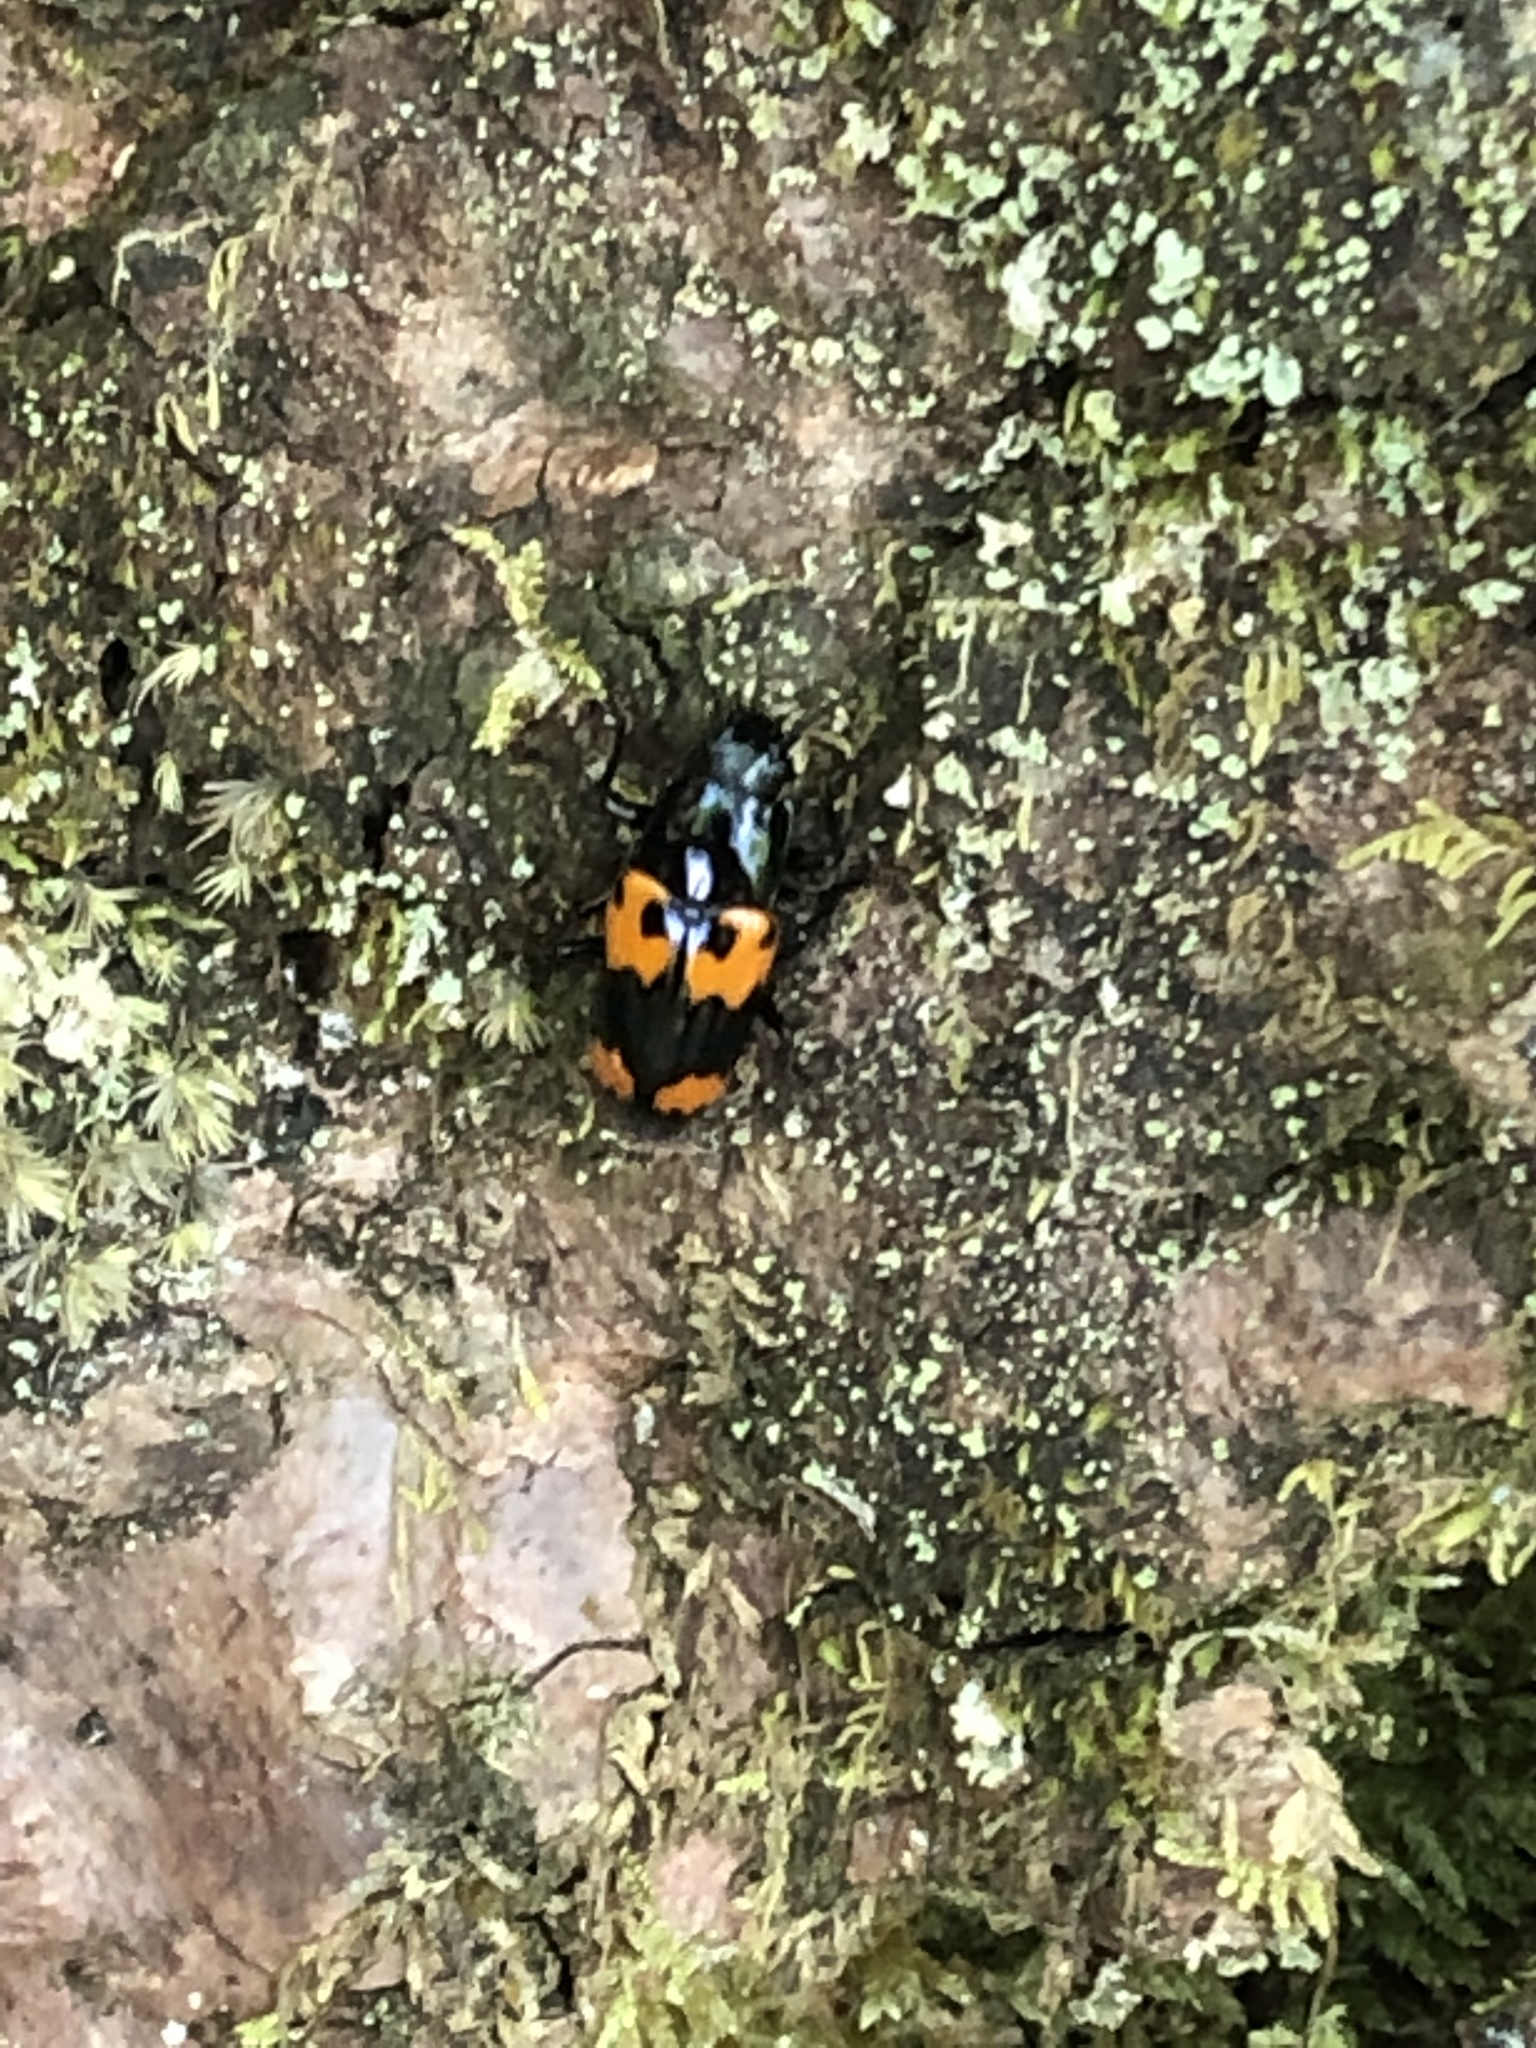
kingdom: Animalia
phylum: Arthropoda
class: Insecta
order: Coleoptera
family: Erotylidae
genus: Megalodacne
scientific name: Megalodacne heros
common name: Pleasing fungus beetle
